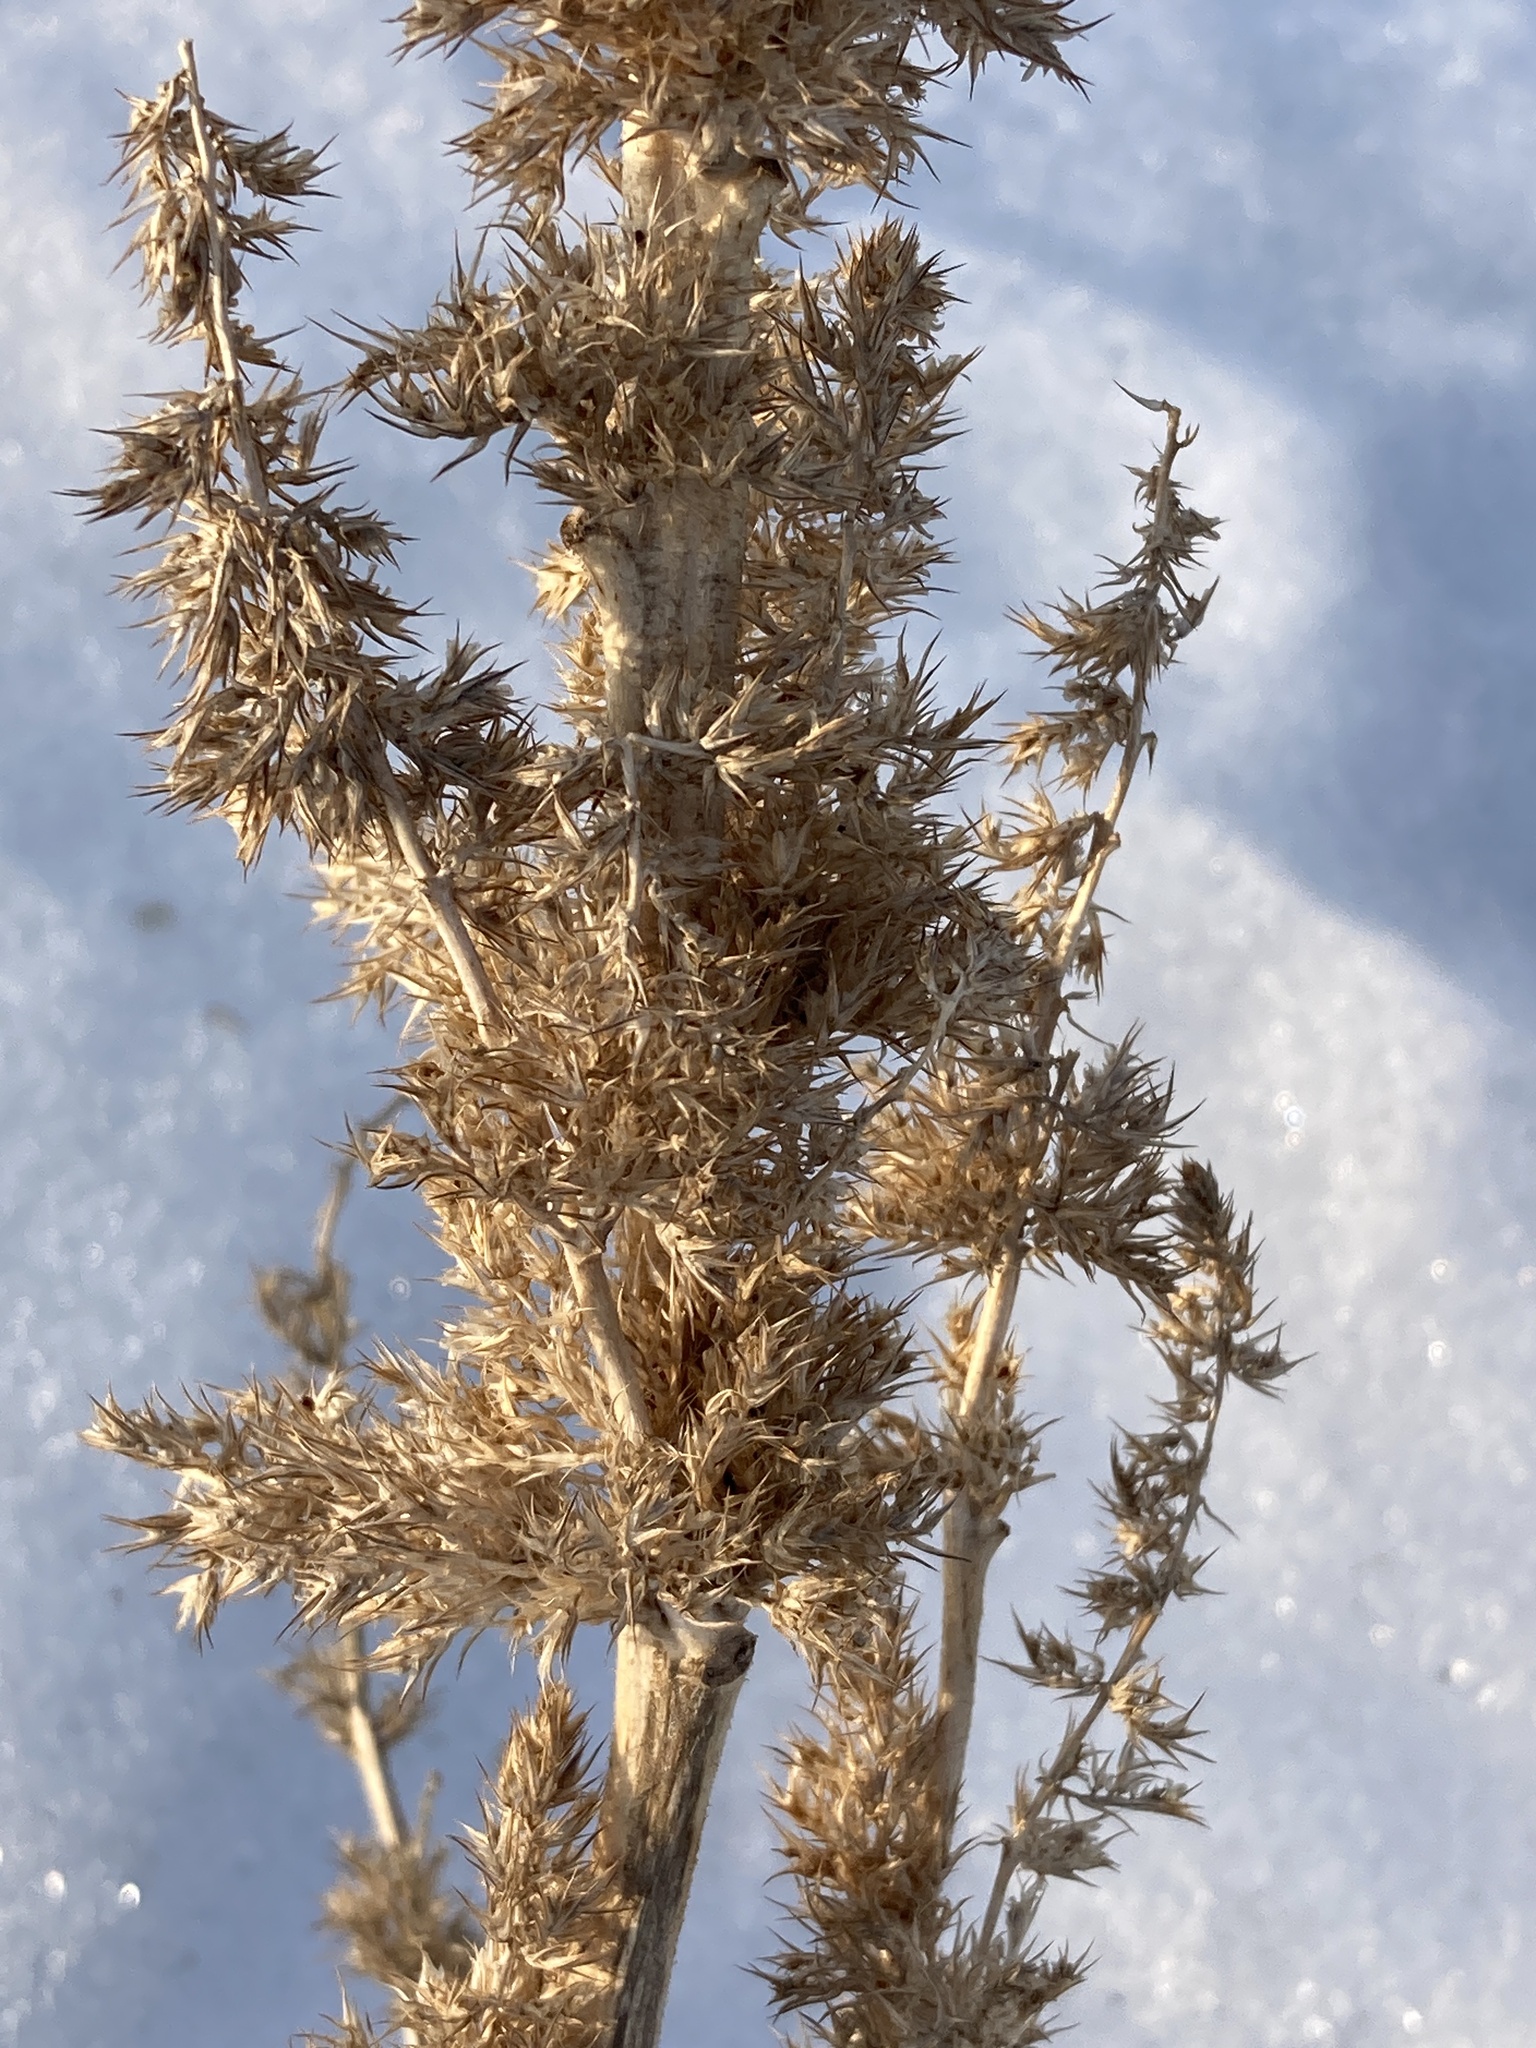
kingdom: Plantae
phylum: Tracheophyta
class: Magnoliopsida
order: Caryophyllales
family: Amaranthaceae
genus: Amaranthus
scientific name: Amaranthus retroflexus
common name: Redroot amaranth
